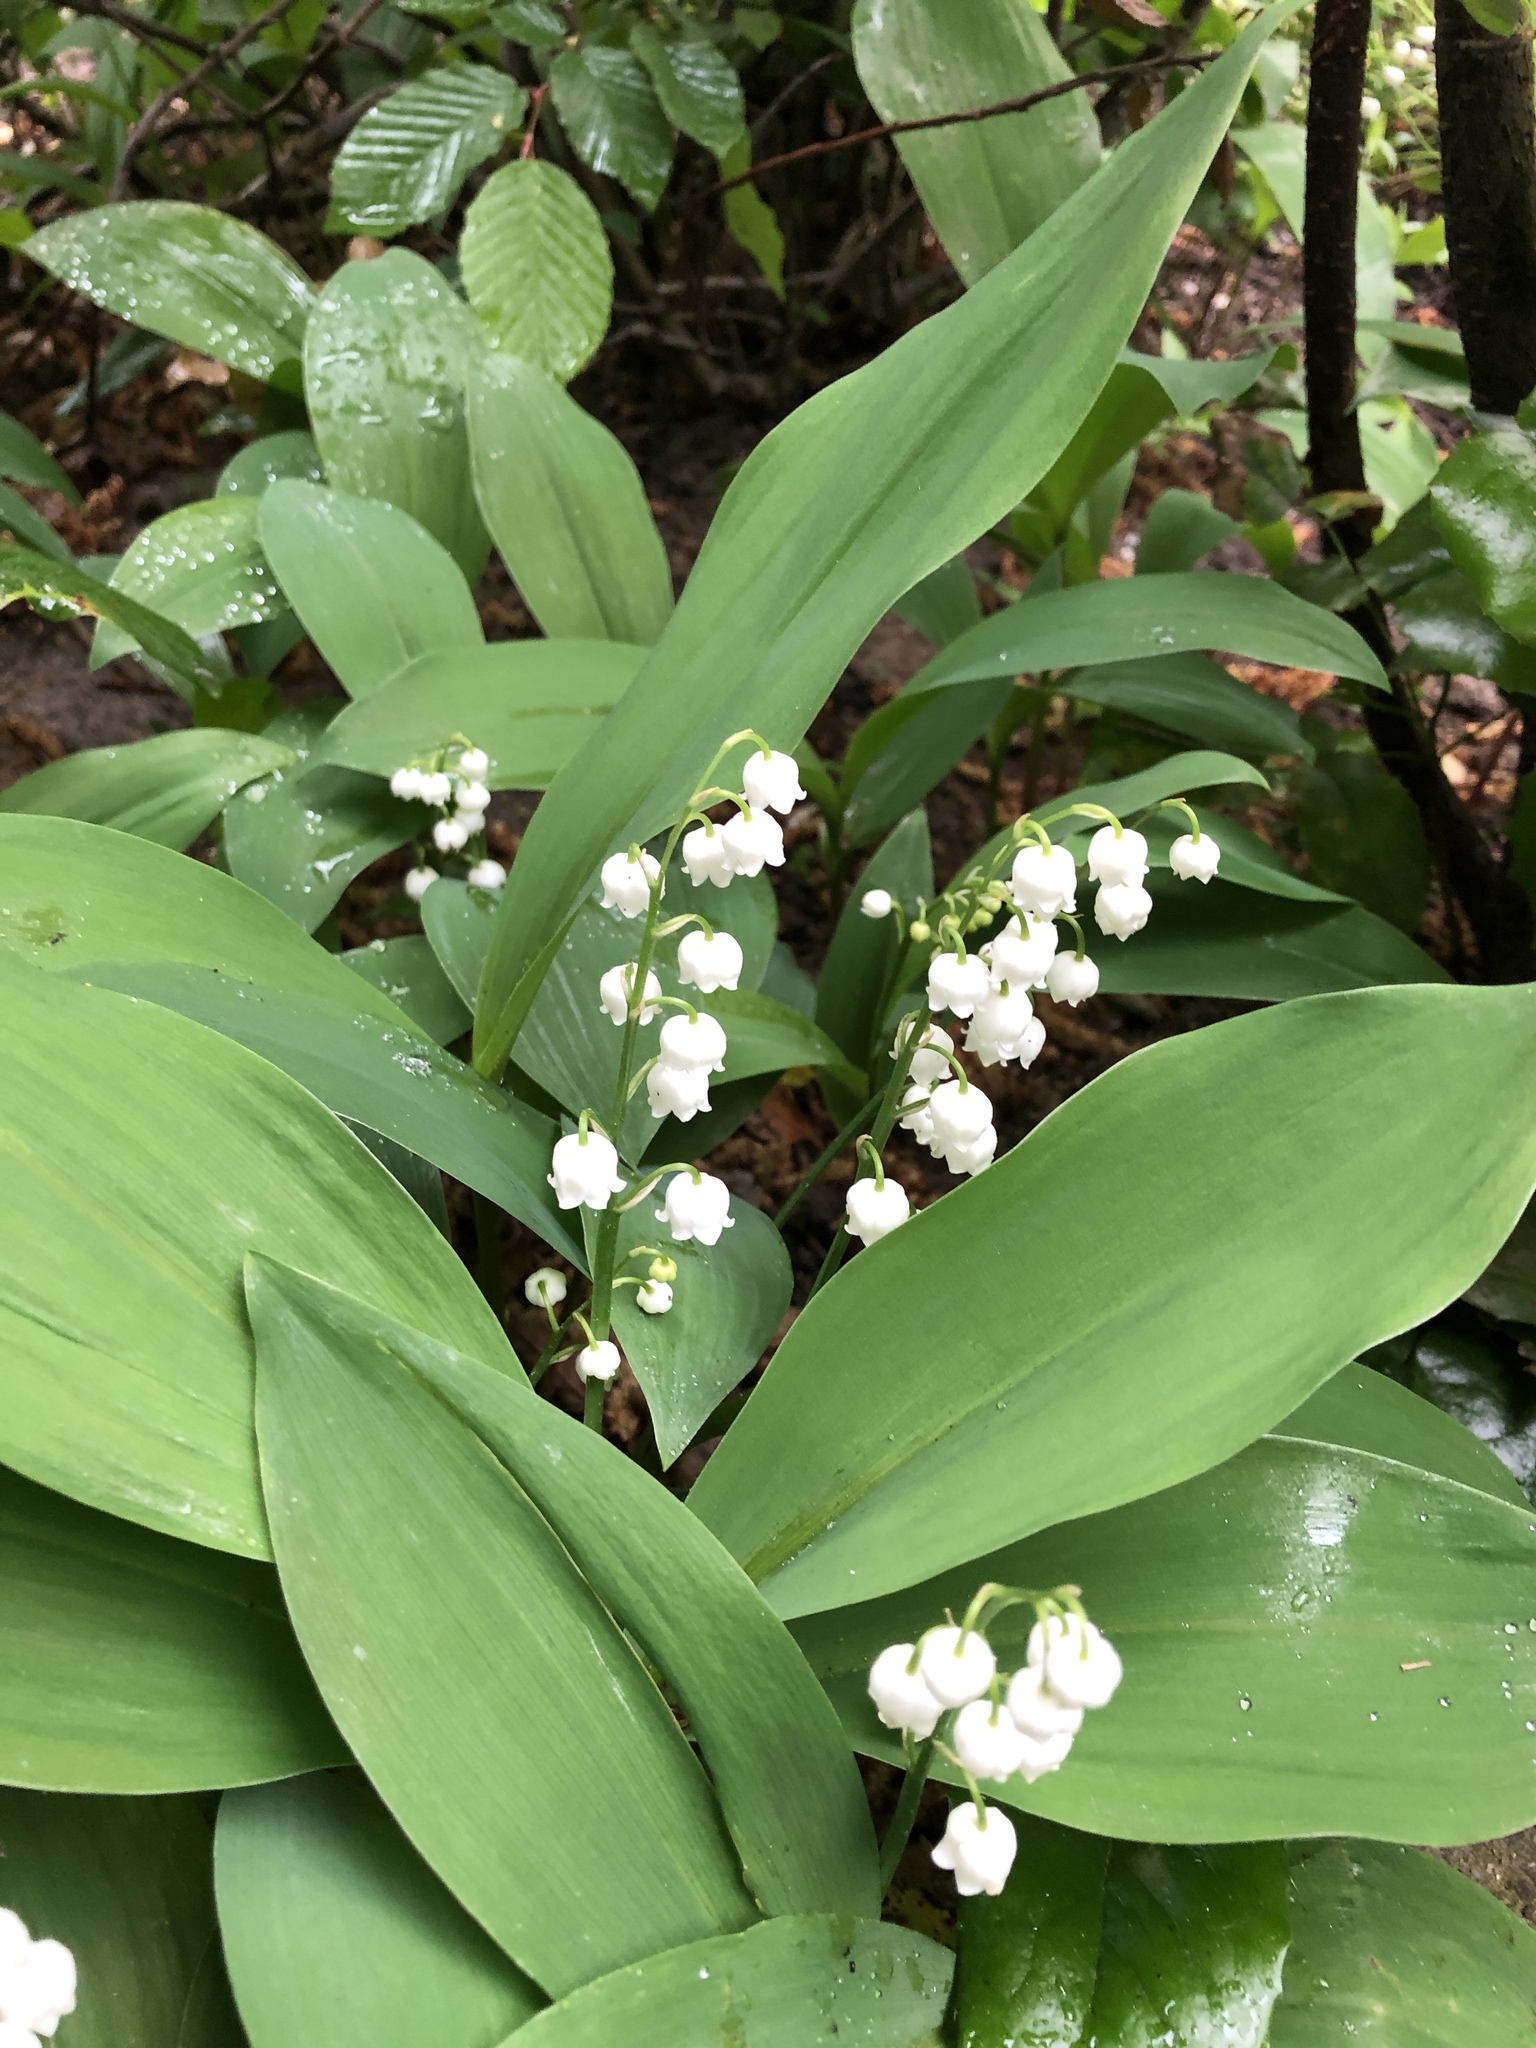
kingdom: Plantae
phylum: Tracheophyta
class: Liliopsida
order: Asparagales
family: Asparagaceae
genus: Convallaria
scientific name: Convallaria majalis
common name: Lily-of-the-valley
